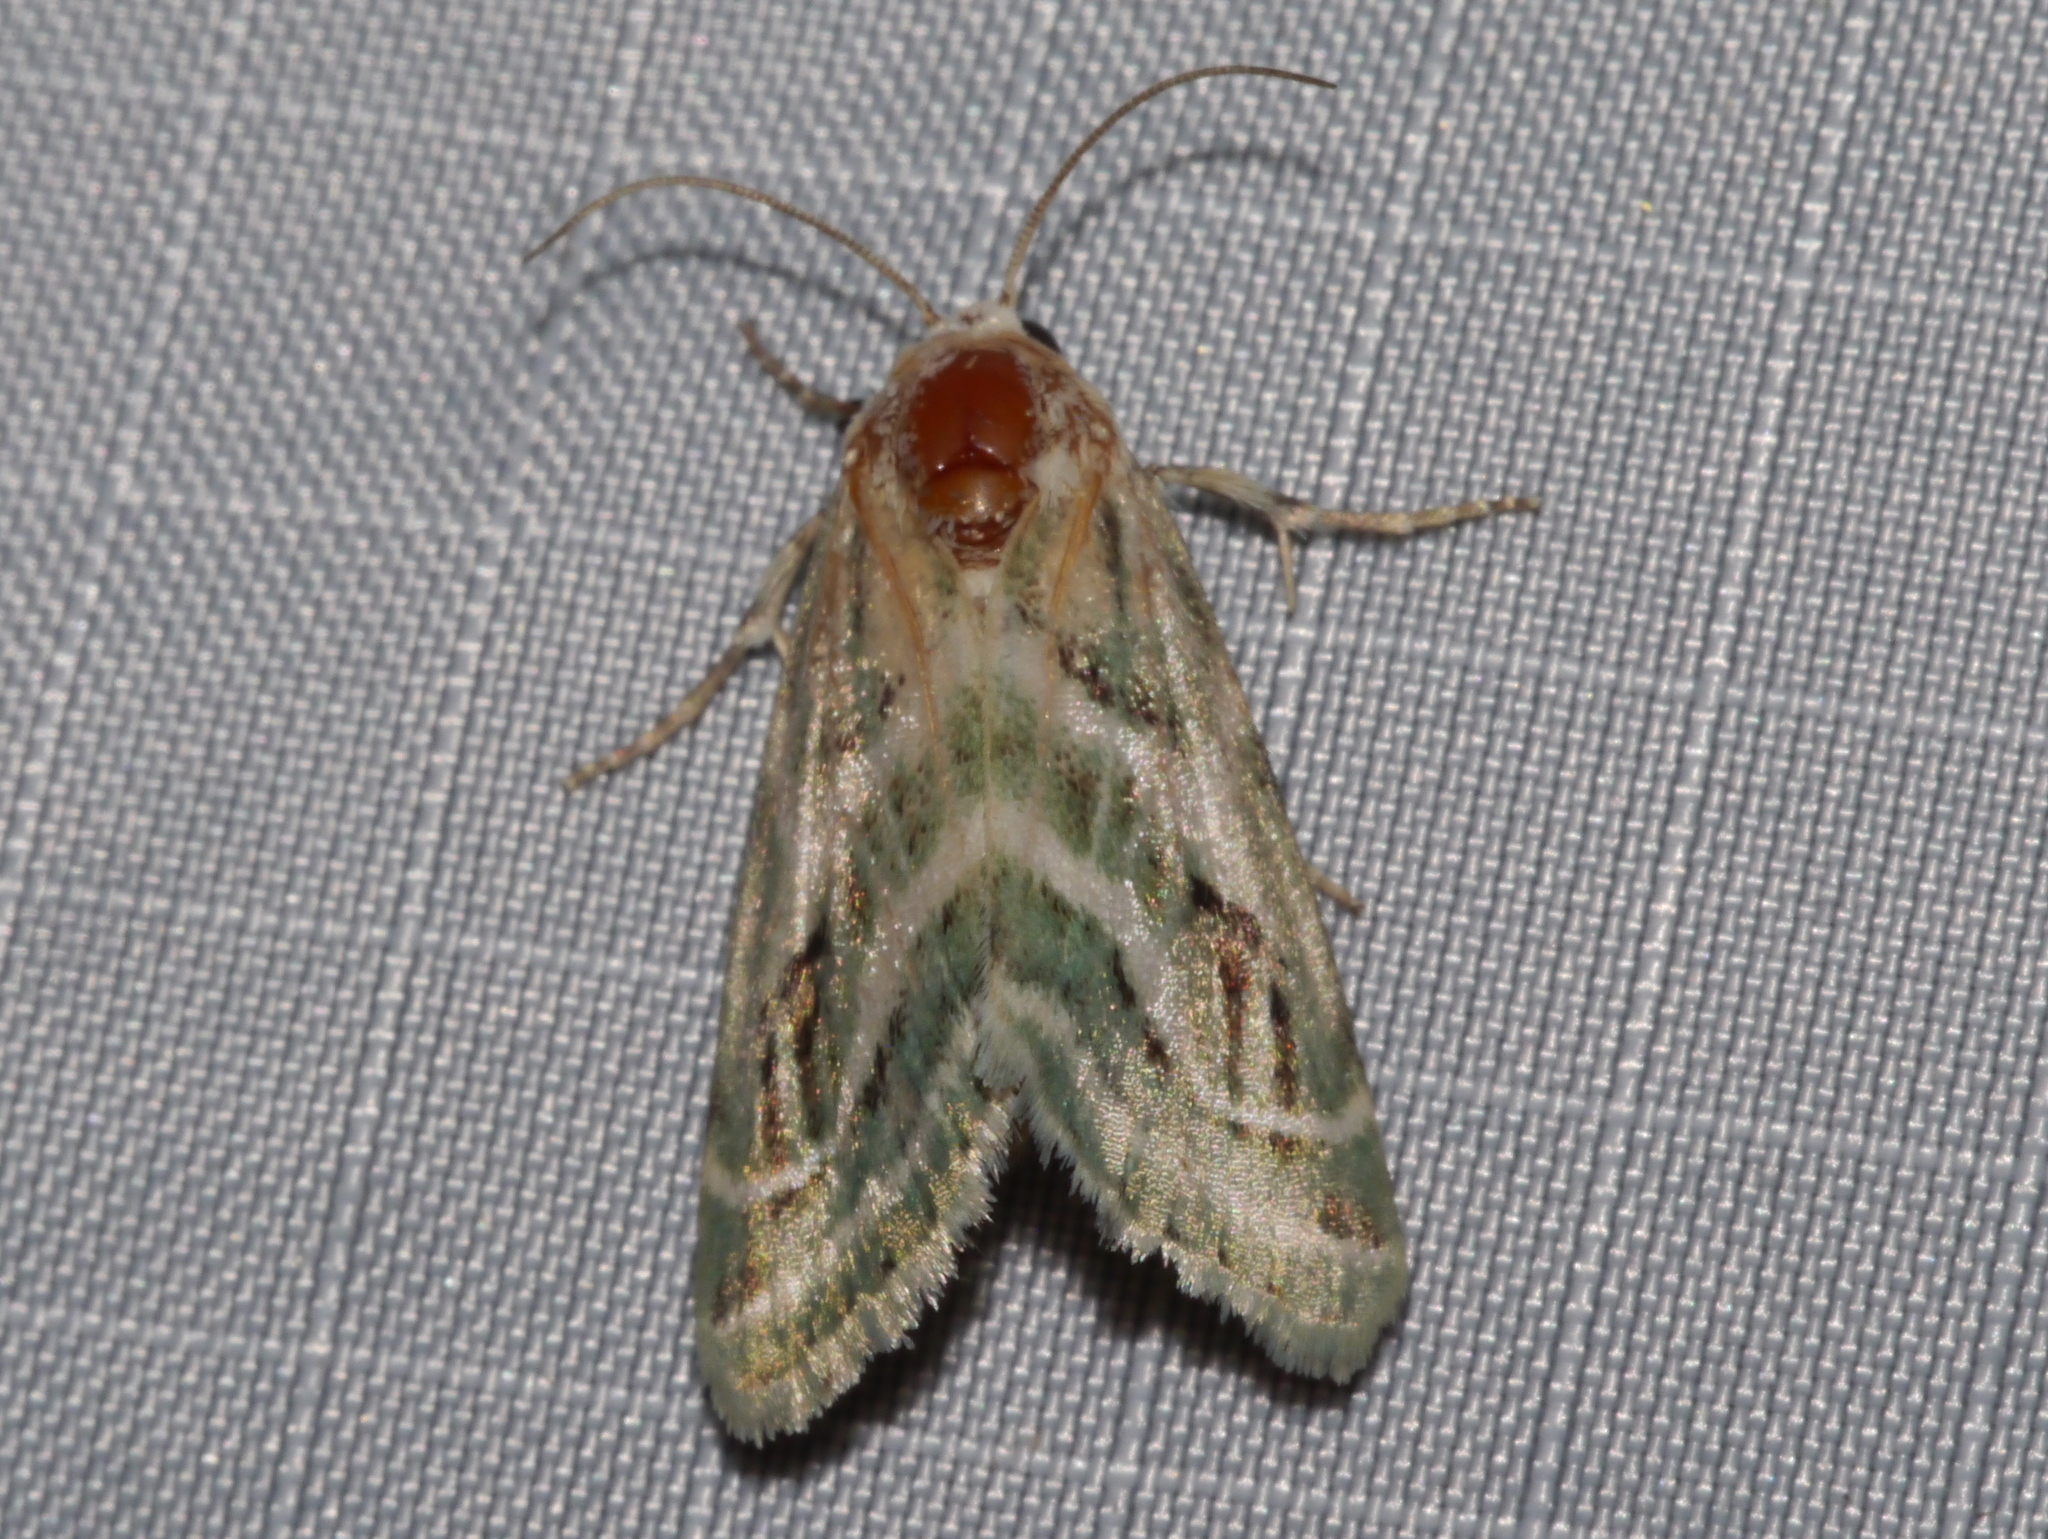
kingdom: Animalia
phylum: Arthropoda
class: Insecta
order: Lepidoptera
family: Noctuidae
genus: Schinia
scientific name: Schinia accessa
